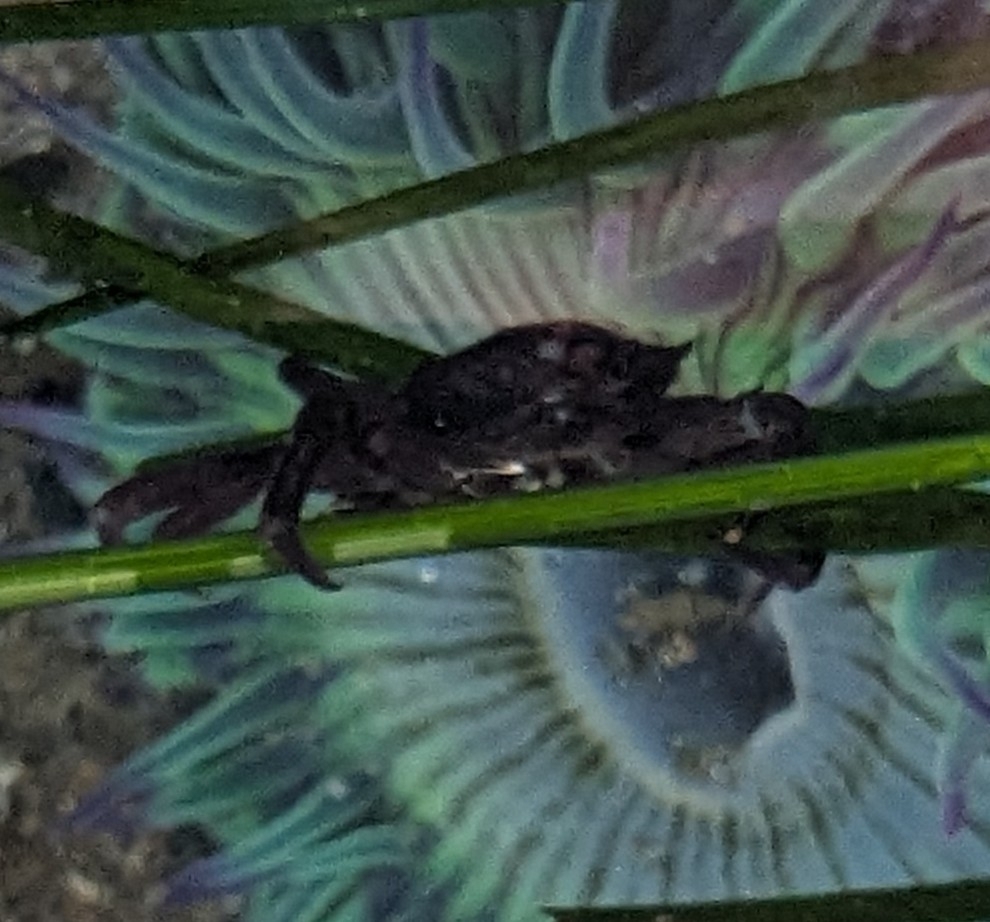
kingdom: Animalia
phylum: Arthropoda
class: Malacostraca
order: Decapoda
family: Epialtidae
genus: Pugettia
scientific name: Pugettia producta
